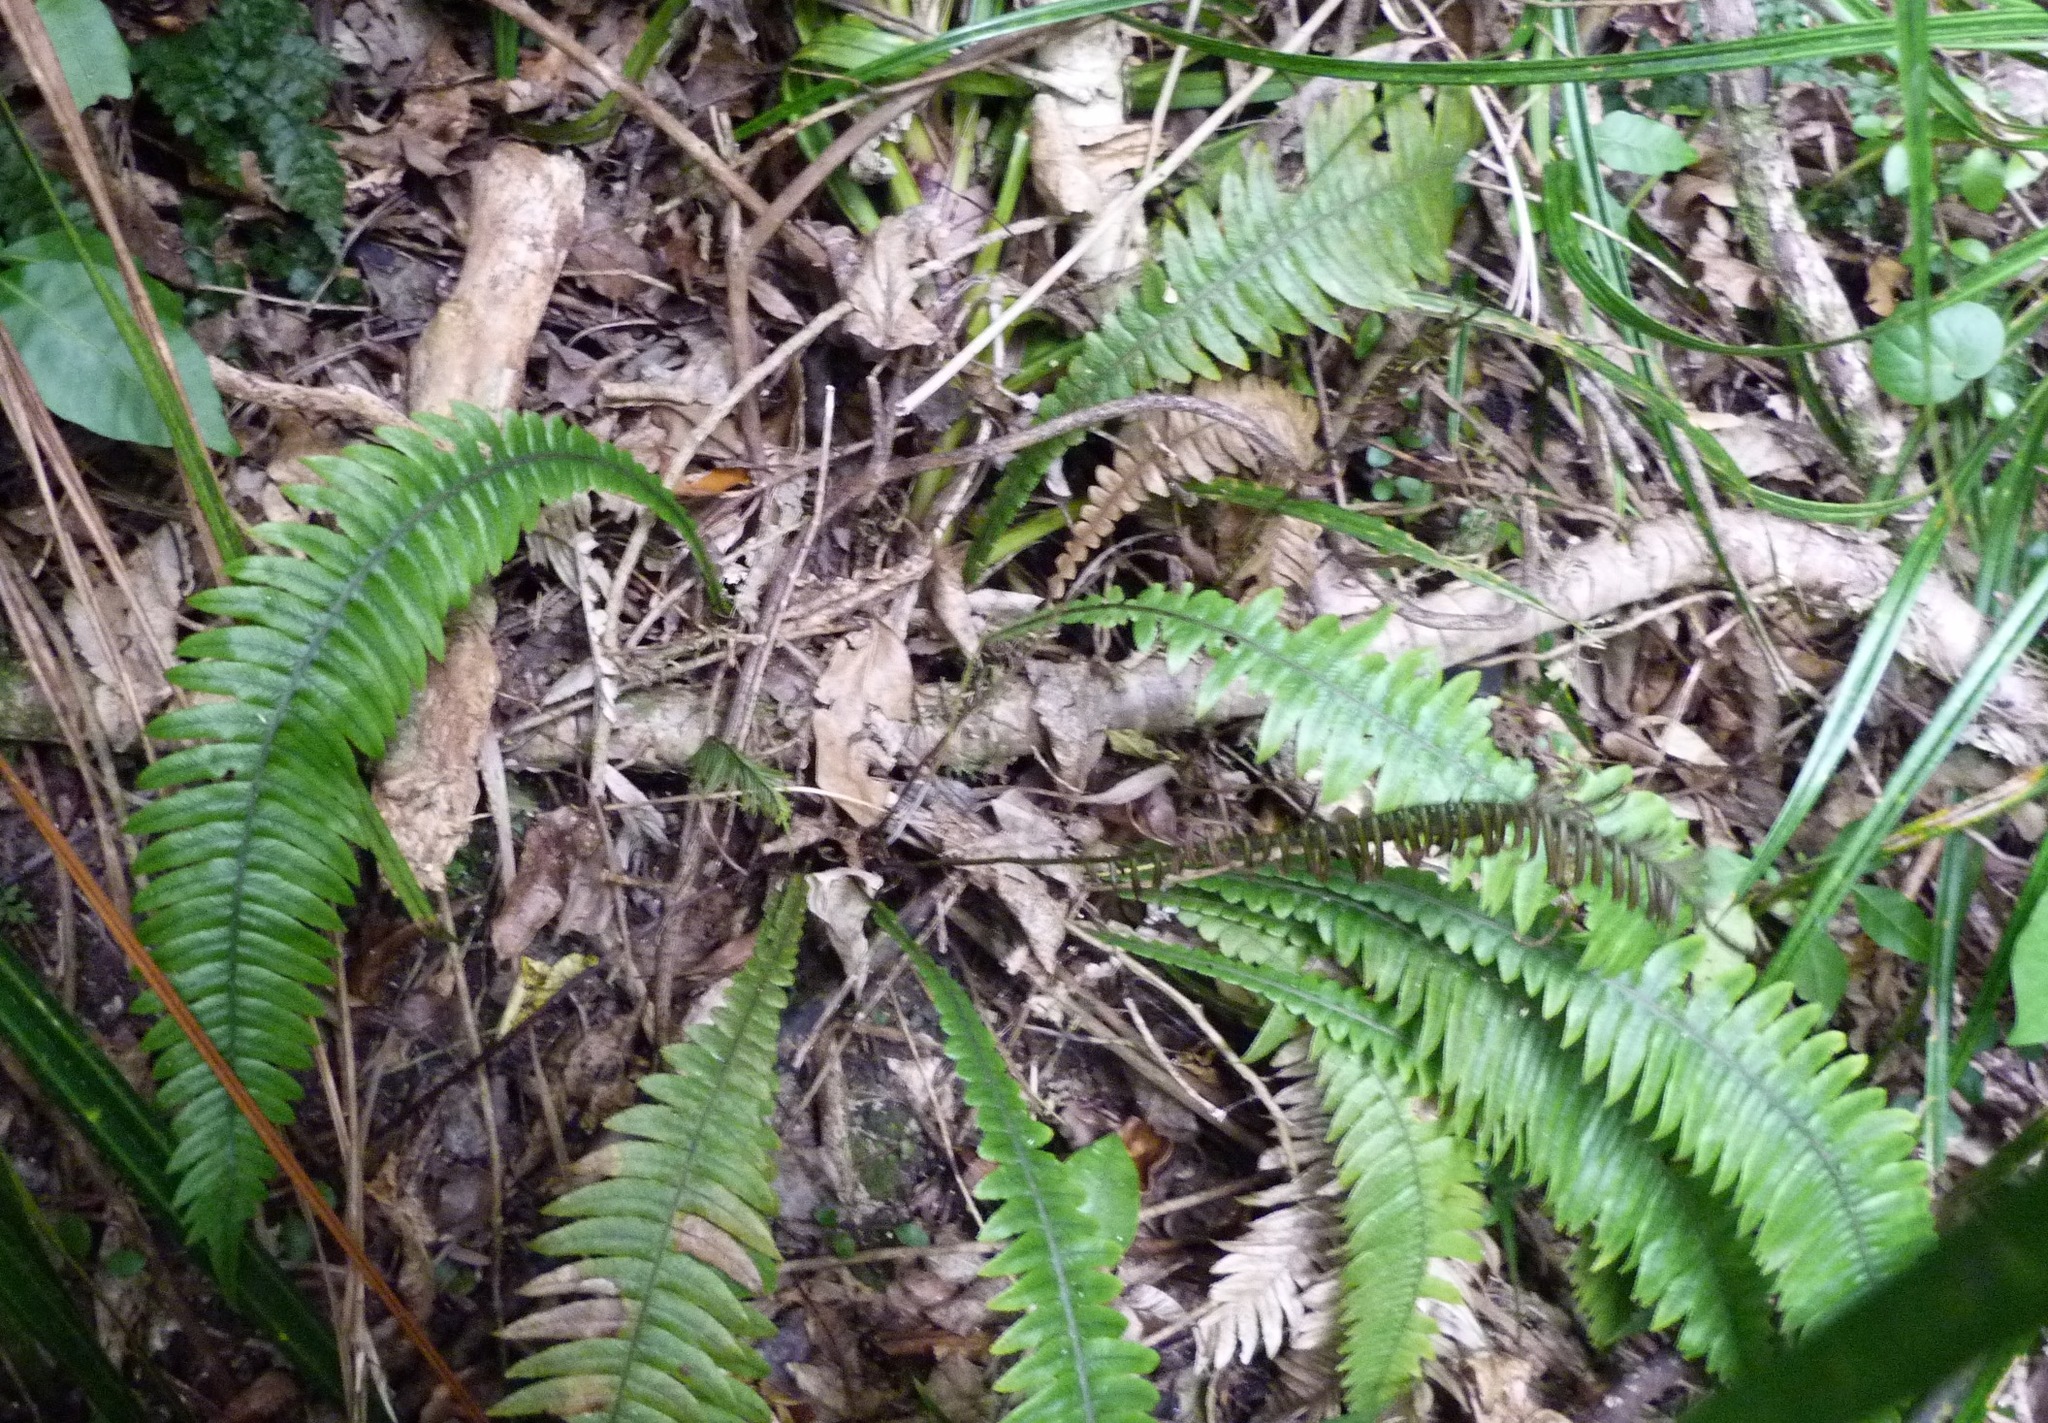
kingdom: Plantae
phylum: Tracheophyta
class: Polypodiopsida
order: Polypodiales
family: Blechnaceae
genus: Austroblechnum
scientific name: Austroblechnum lanceolatum
